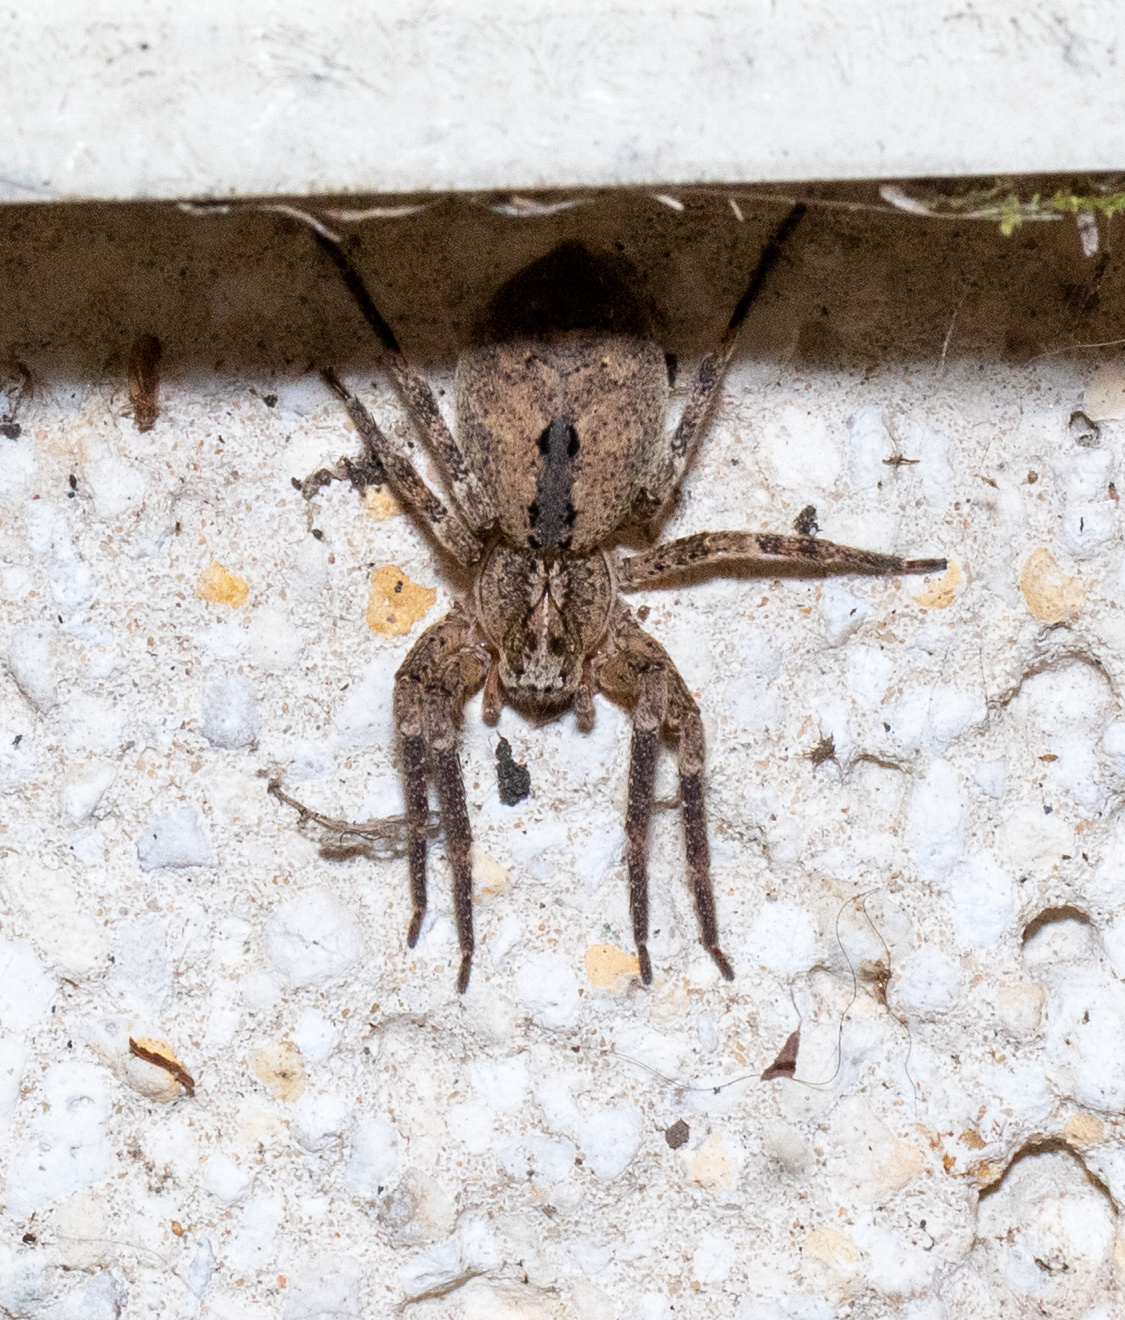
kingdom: Animalia
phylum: Arthropoda
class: Arachnida
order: Araneae
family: Zoropsidae
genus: Zoropsis
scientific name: Zoropsis spinimana
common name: Zoropsid spider
